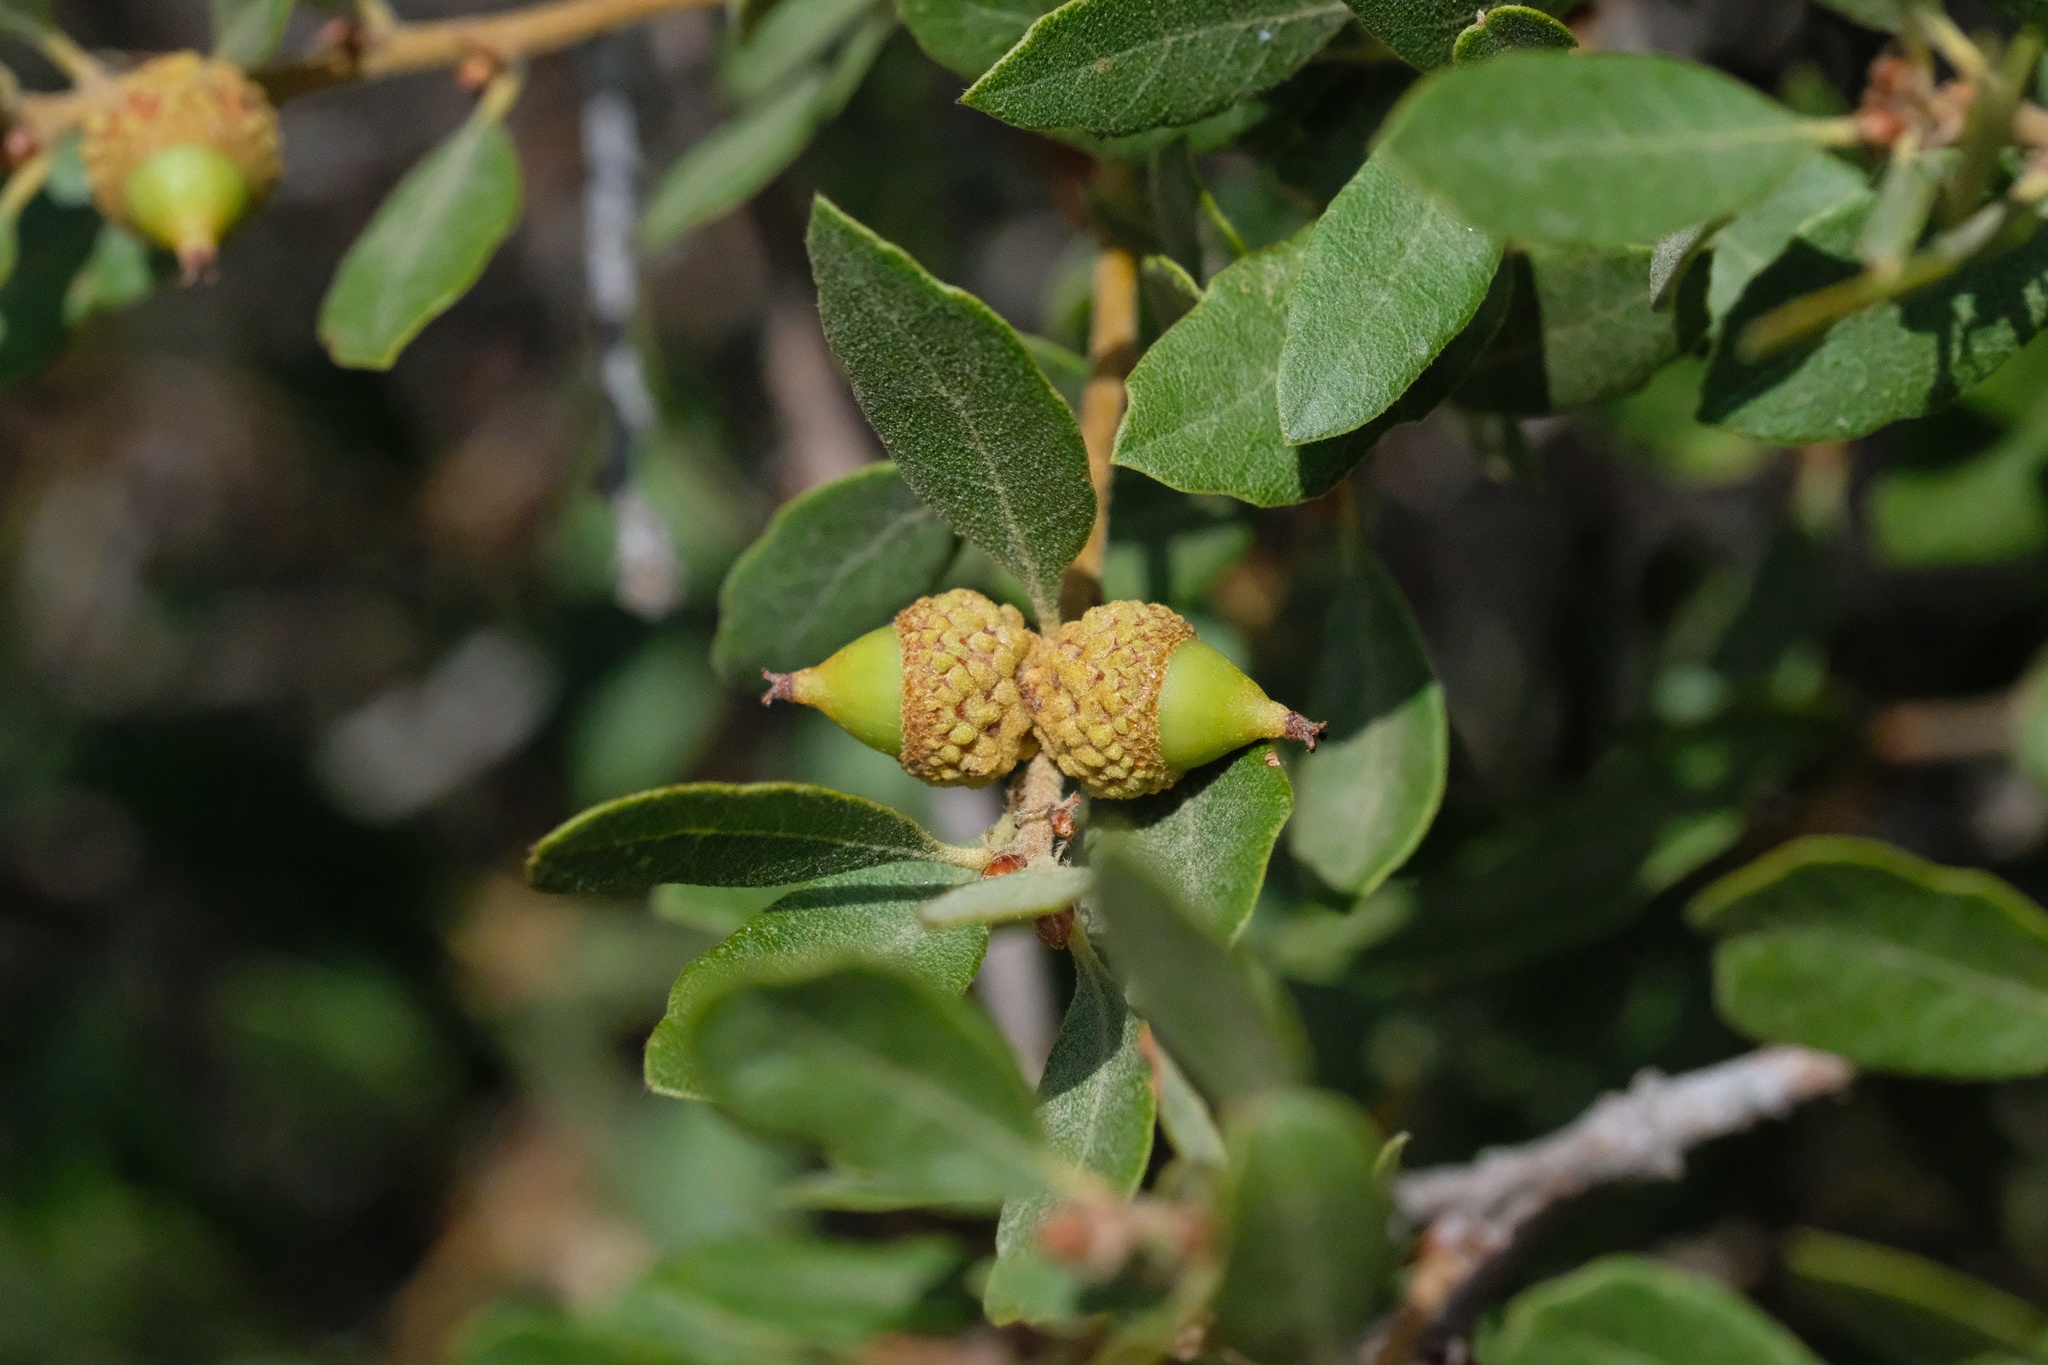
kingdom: Plantae
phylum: Tracheophyta
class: Magnoliopsida
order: Fagales
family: Fagaceae
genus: Quercus
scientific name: Quercus acutidens
